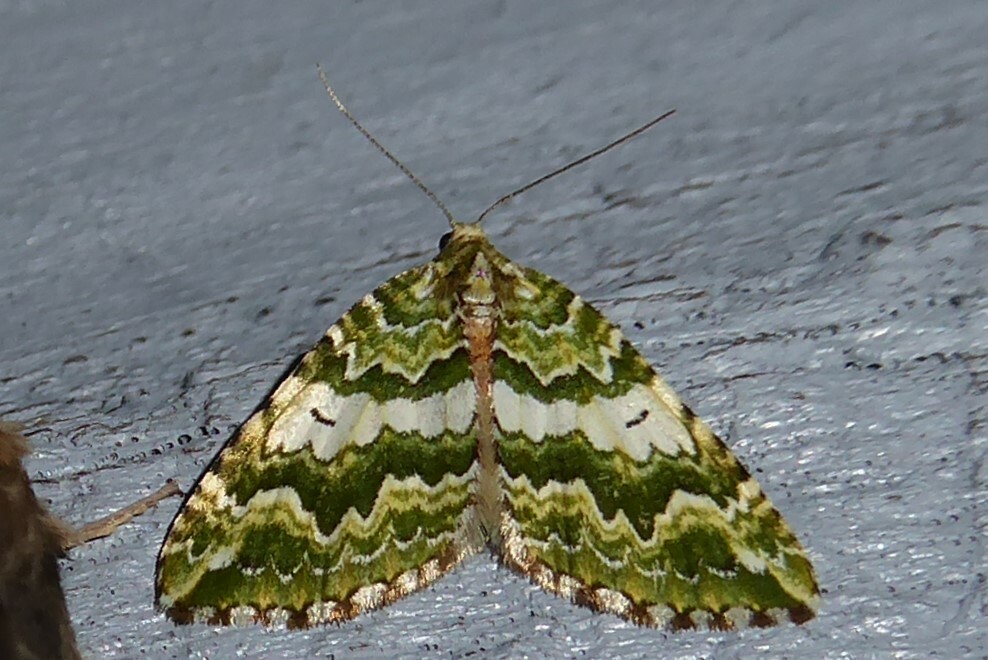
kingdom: Animalia
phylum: Arthropoda
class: Insecta
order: Lepidoptera
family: Geometridae
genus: Asaphodes
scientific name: Asaphodes beata
